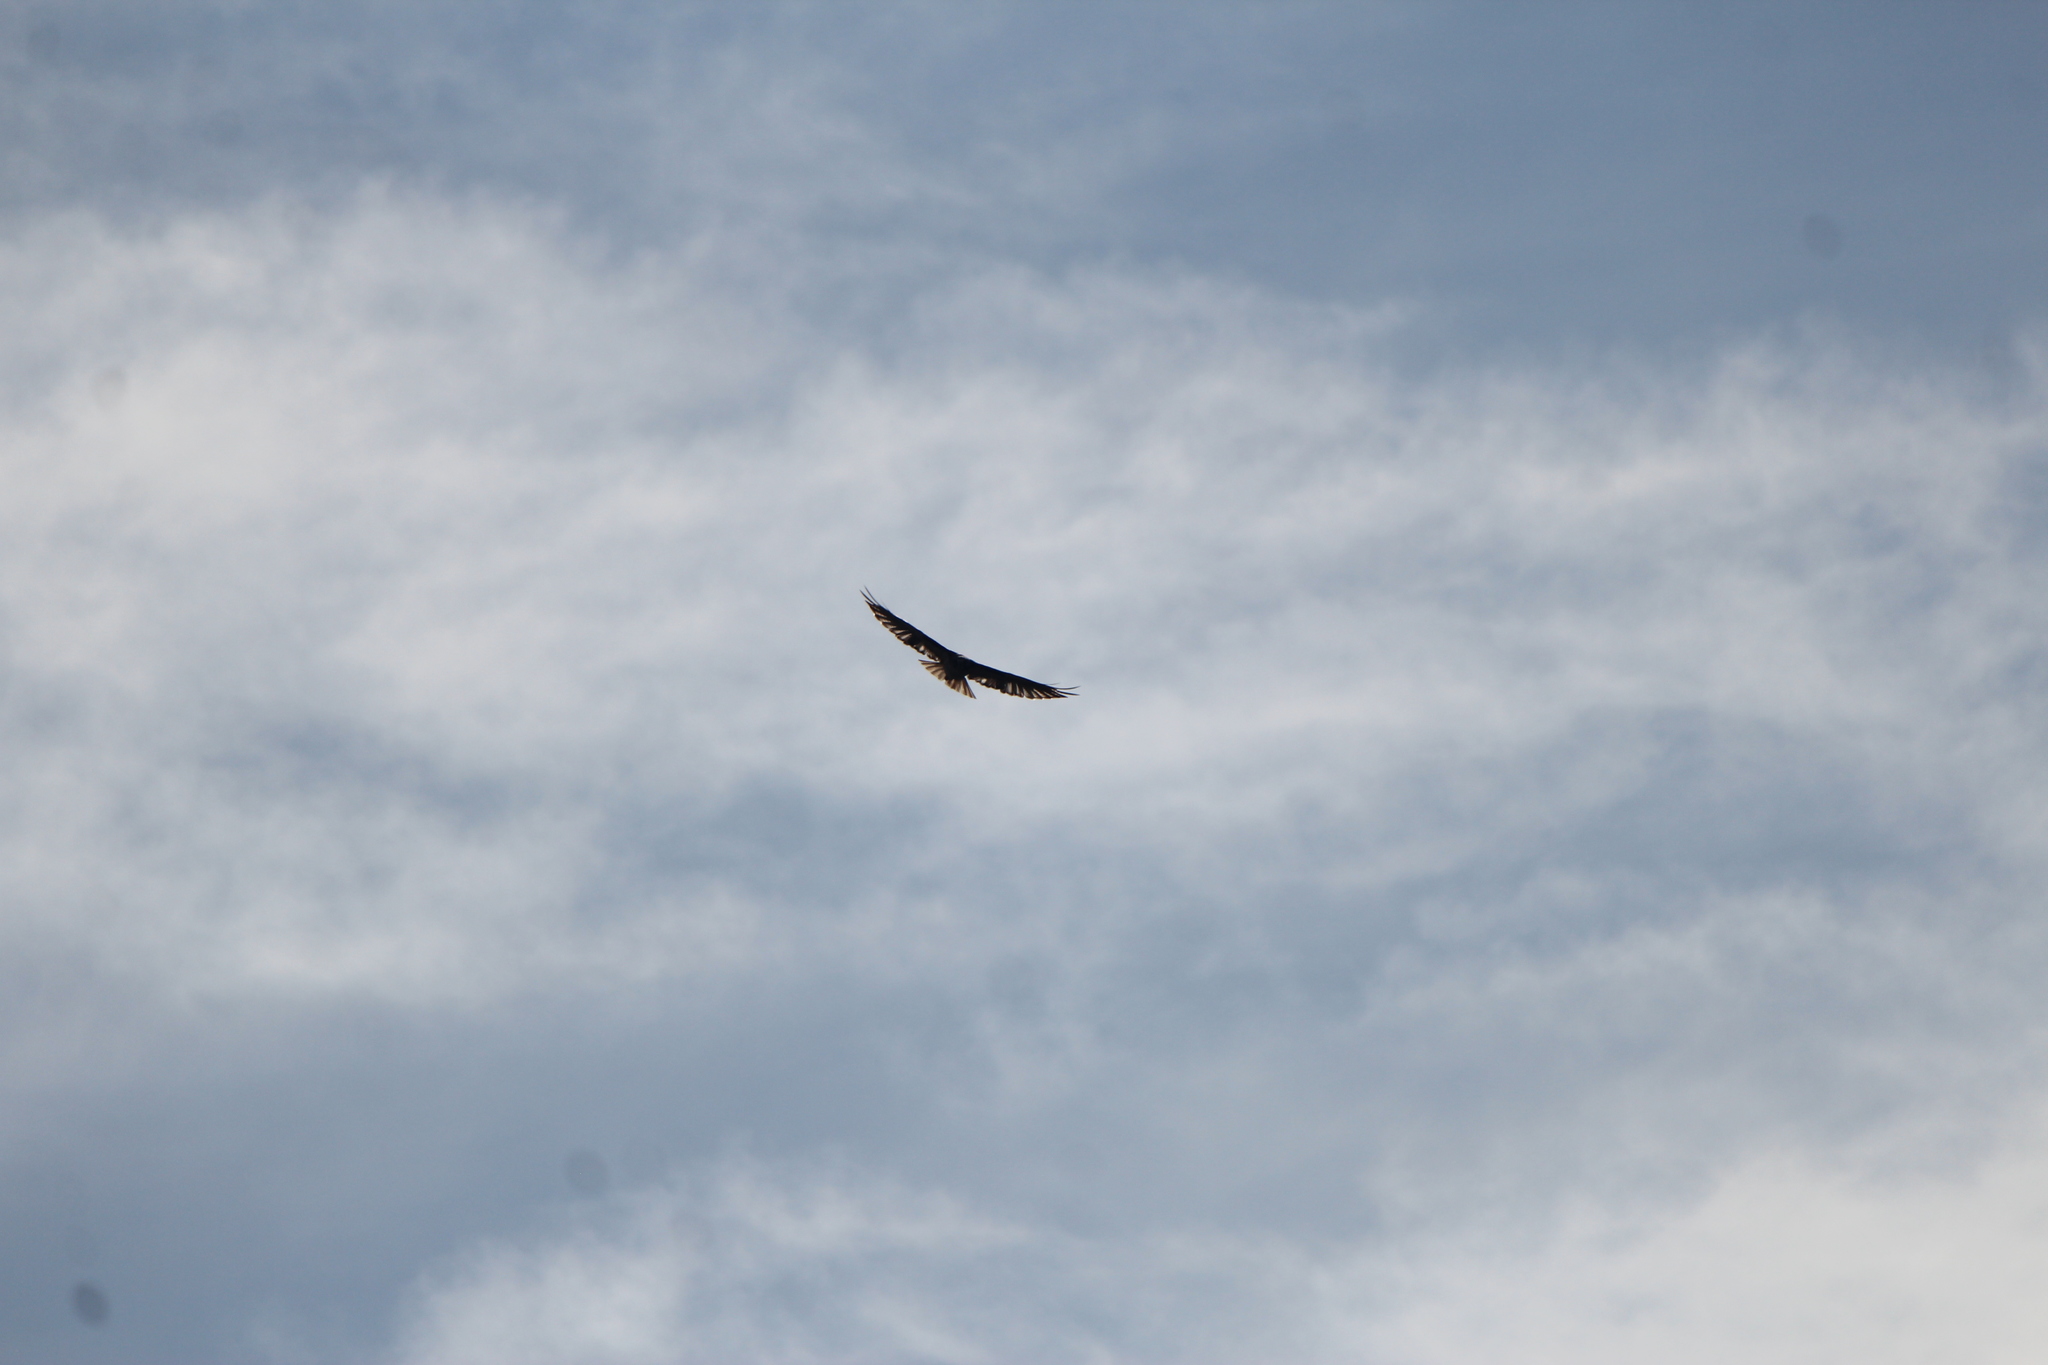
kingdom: Animalia
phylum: Chordata
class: Aves
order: Accipitriformes
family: Accipitridae
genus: Buteo
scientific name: Buteo jamaicensis
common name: Red-tailed hawk
